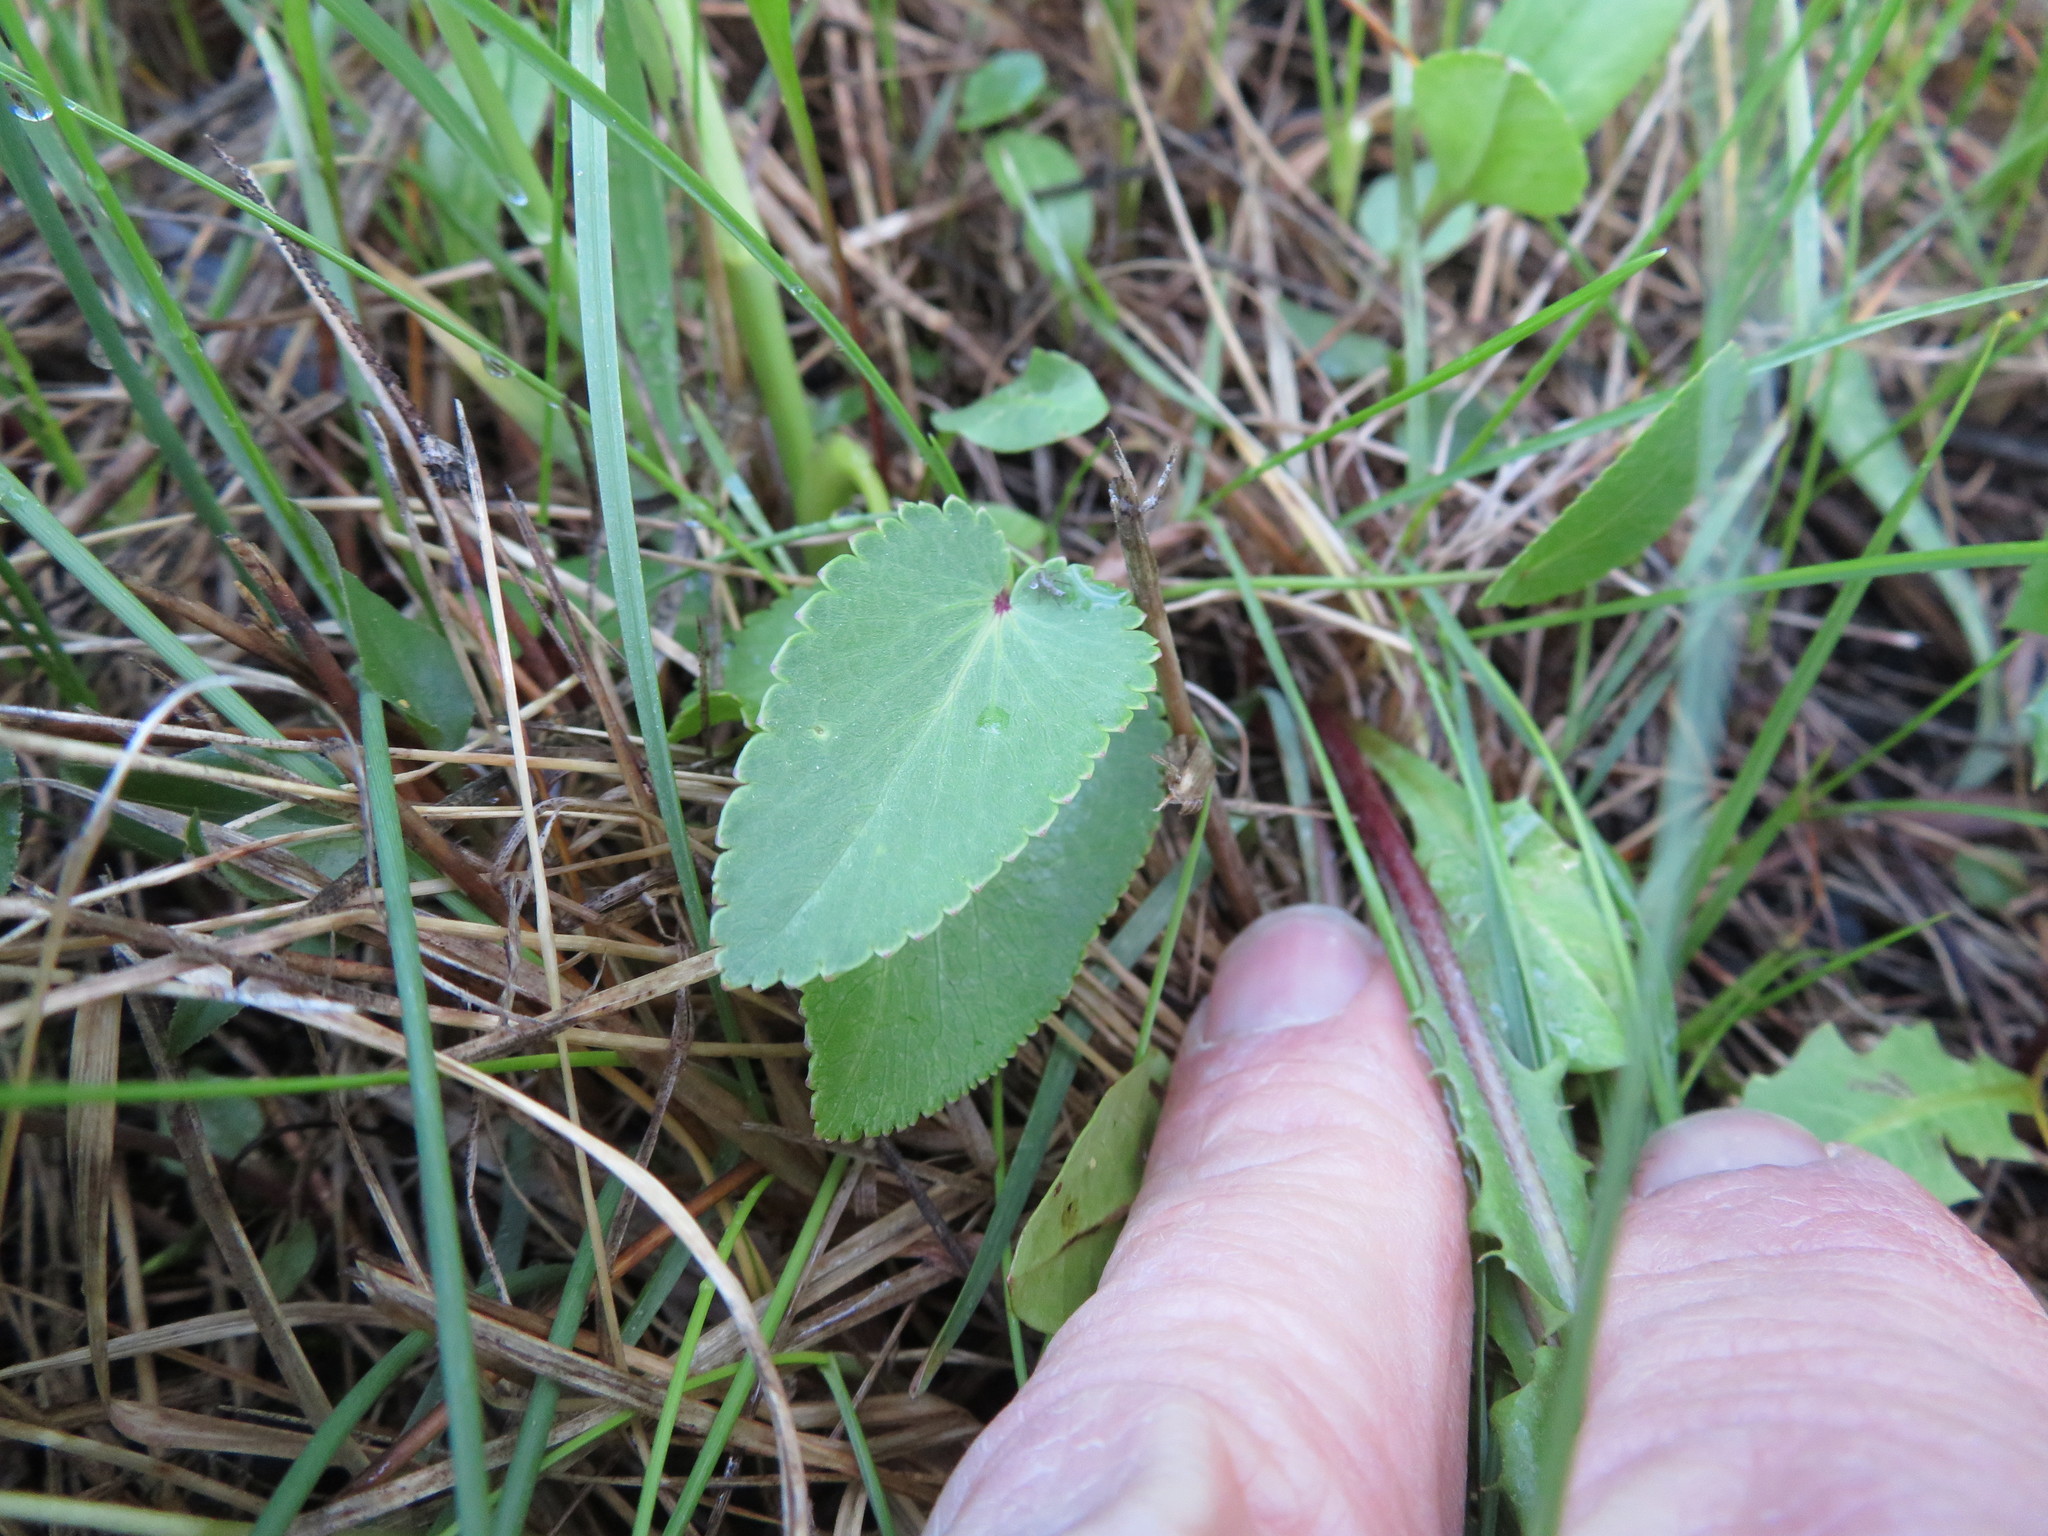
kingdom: Plantae
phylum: Tracheophyta
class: Magnoliopsida
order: Apiales
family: Apiaceae
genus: Zizia
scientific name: Zizia aptera
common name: Heart-leaved alexanders
